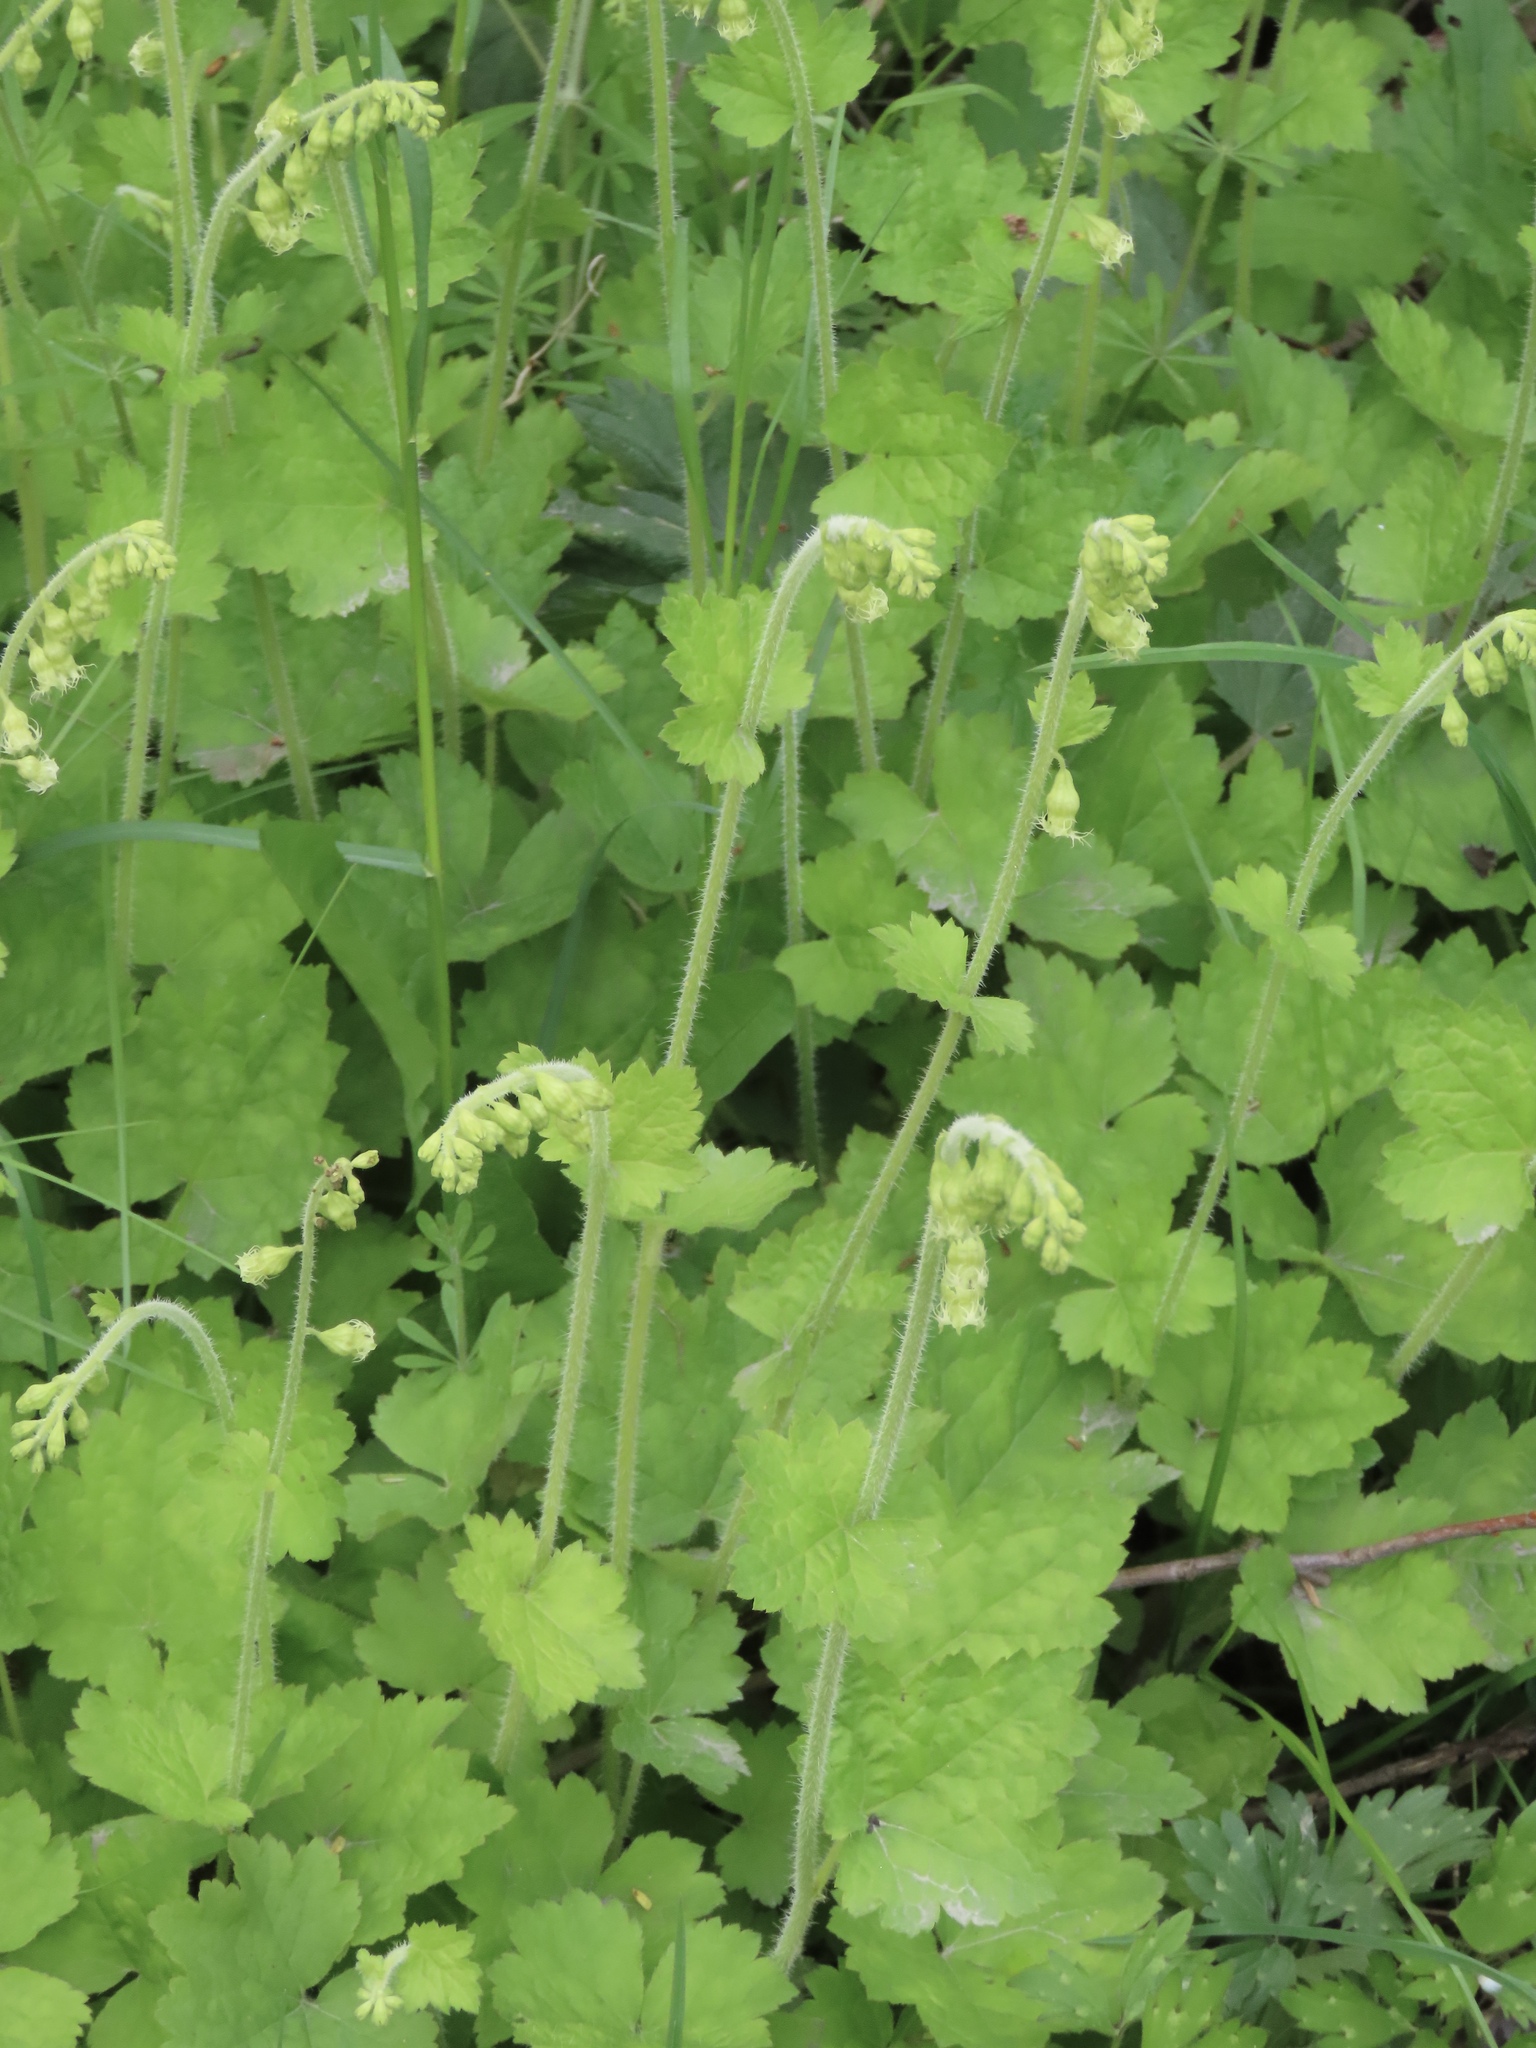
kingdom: Plantae
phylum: Tracheophyta
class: Magnoliopsida
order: Saxifragales
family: Saxifragaceae
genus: Tellima
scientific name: Tellima grandiflora
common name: Fringecups
